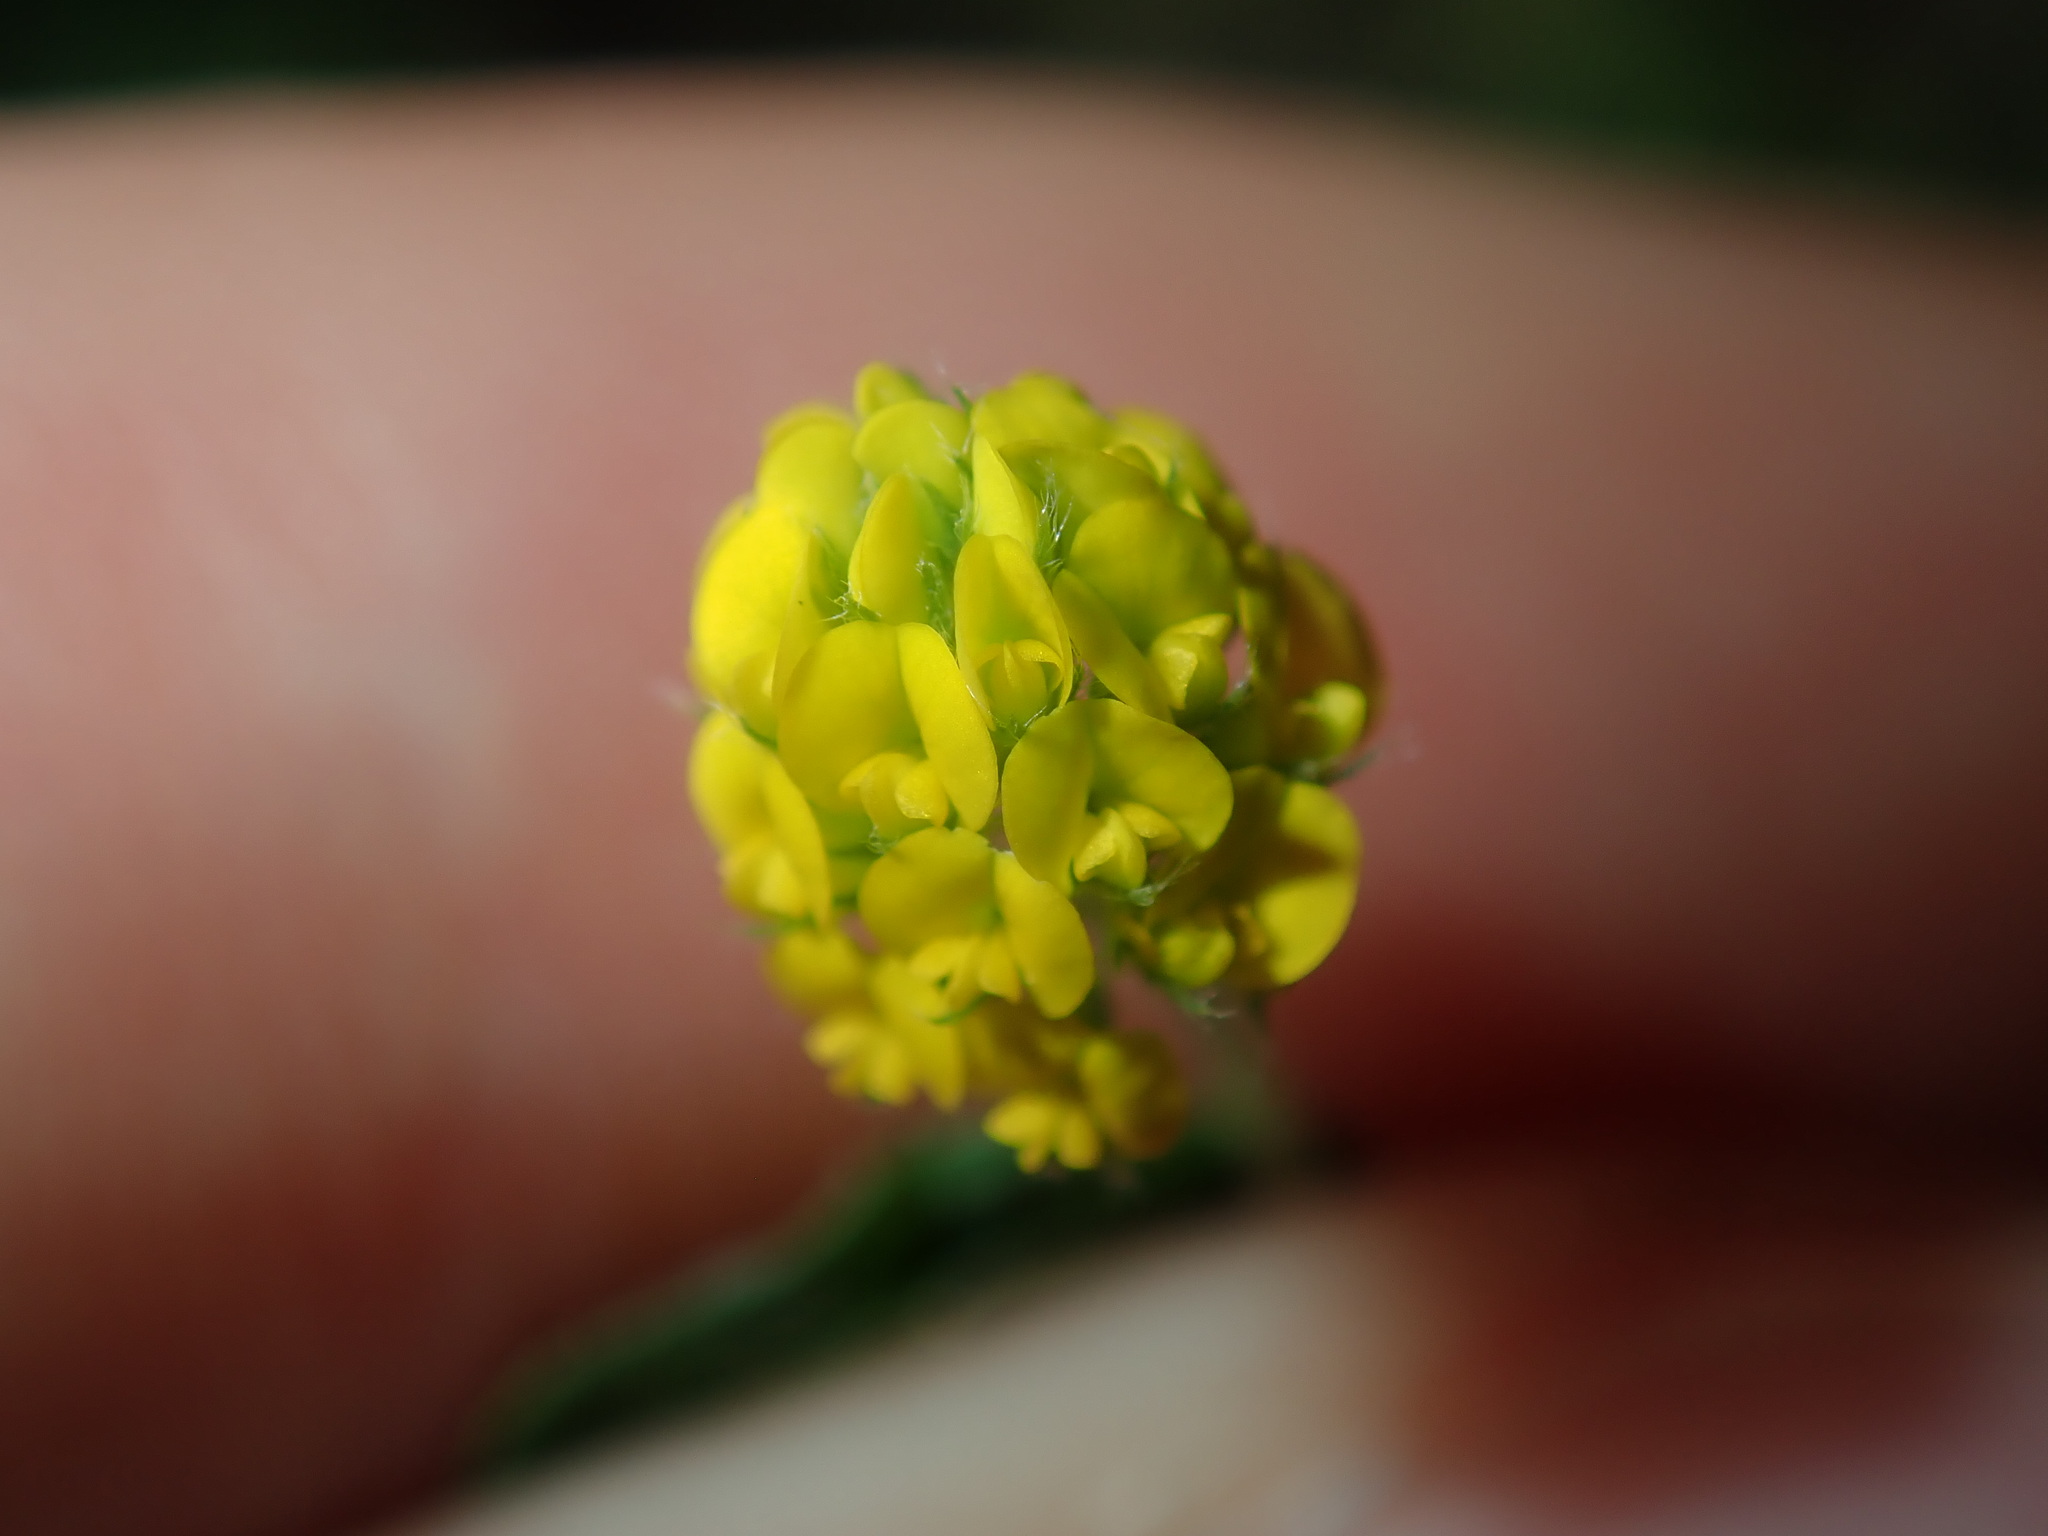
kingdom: Plantae
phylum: Tracheophyta
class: Magnoliopsida
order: Fabales
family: Fabaceae
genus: Medicago
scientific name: Medicago lupulina
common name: Black medick
